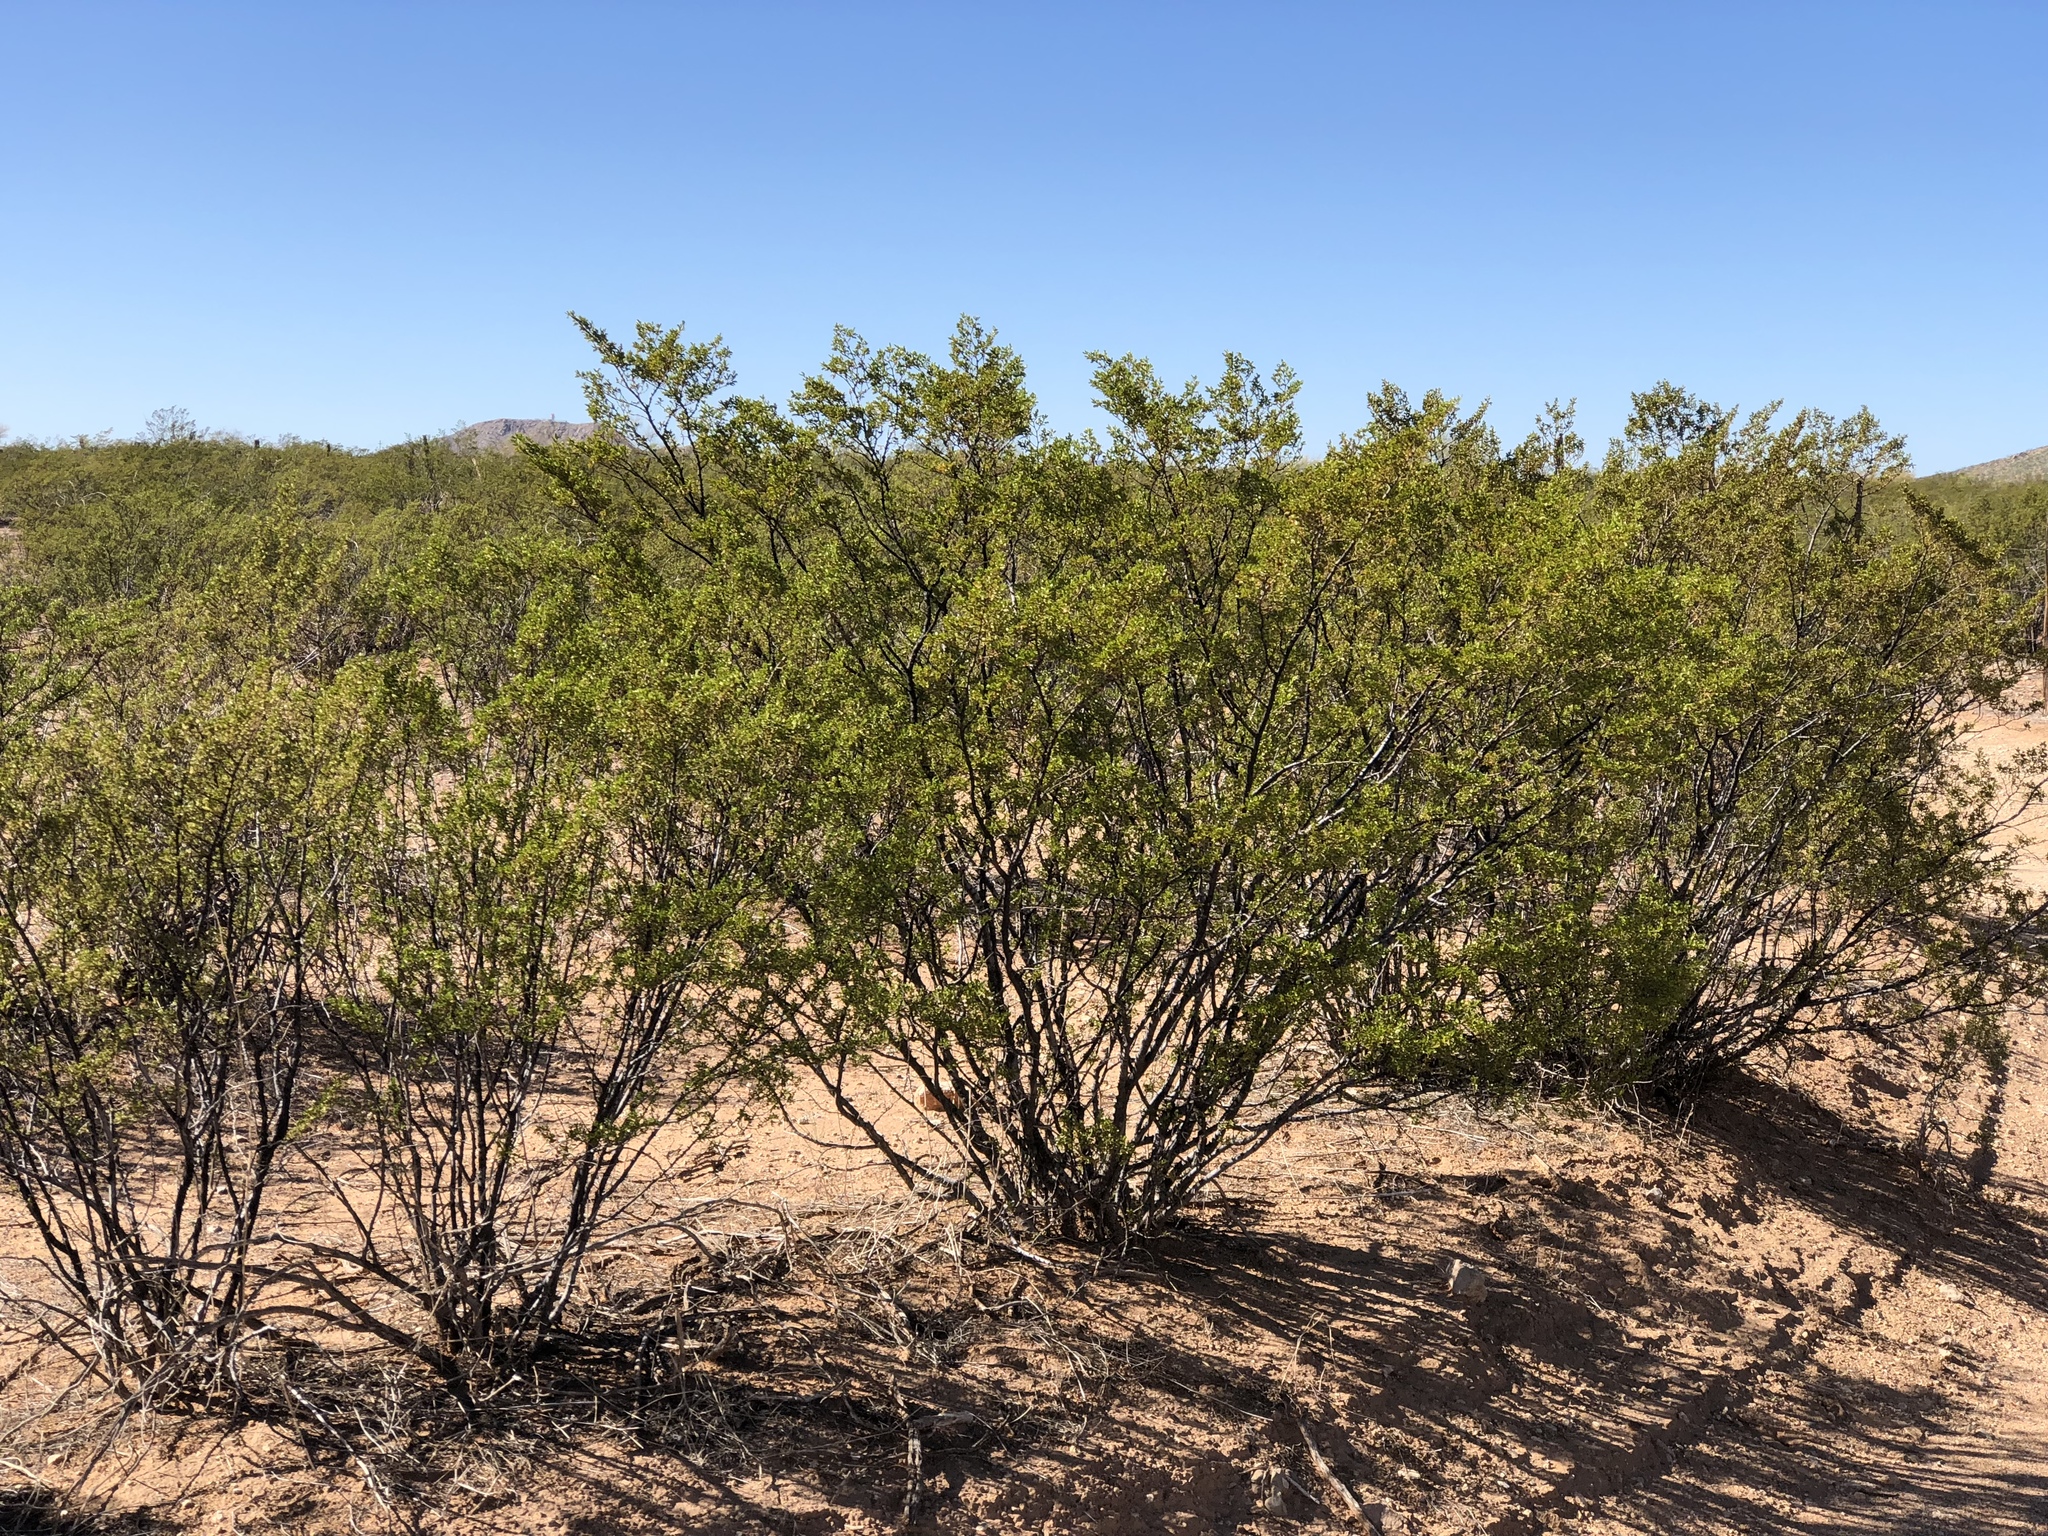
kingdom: Plantae
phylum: Tracheophyta
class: Magnoliopsida
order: Zygophyllales
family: Zygophyllaceae
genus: Larrea
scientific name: Larrea tridentata
